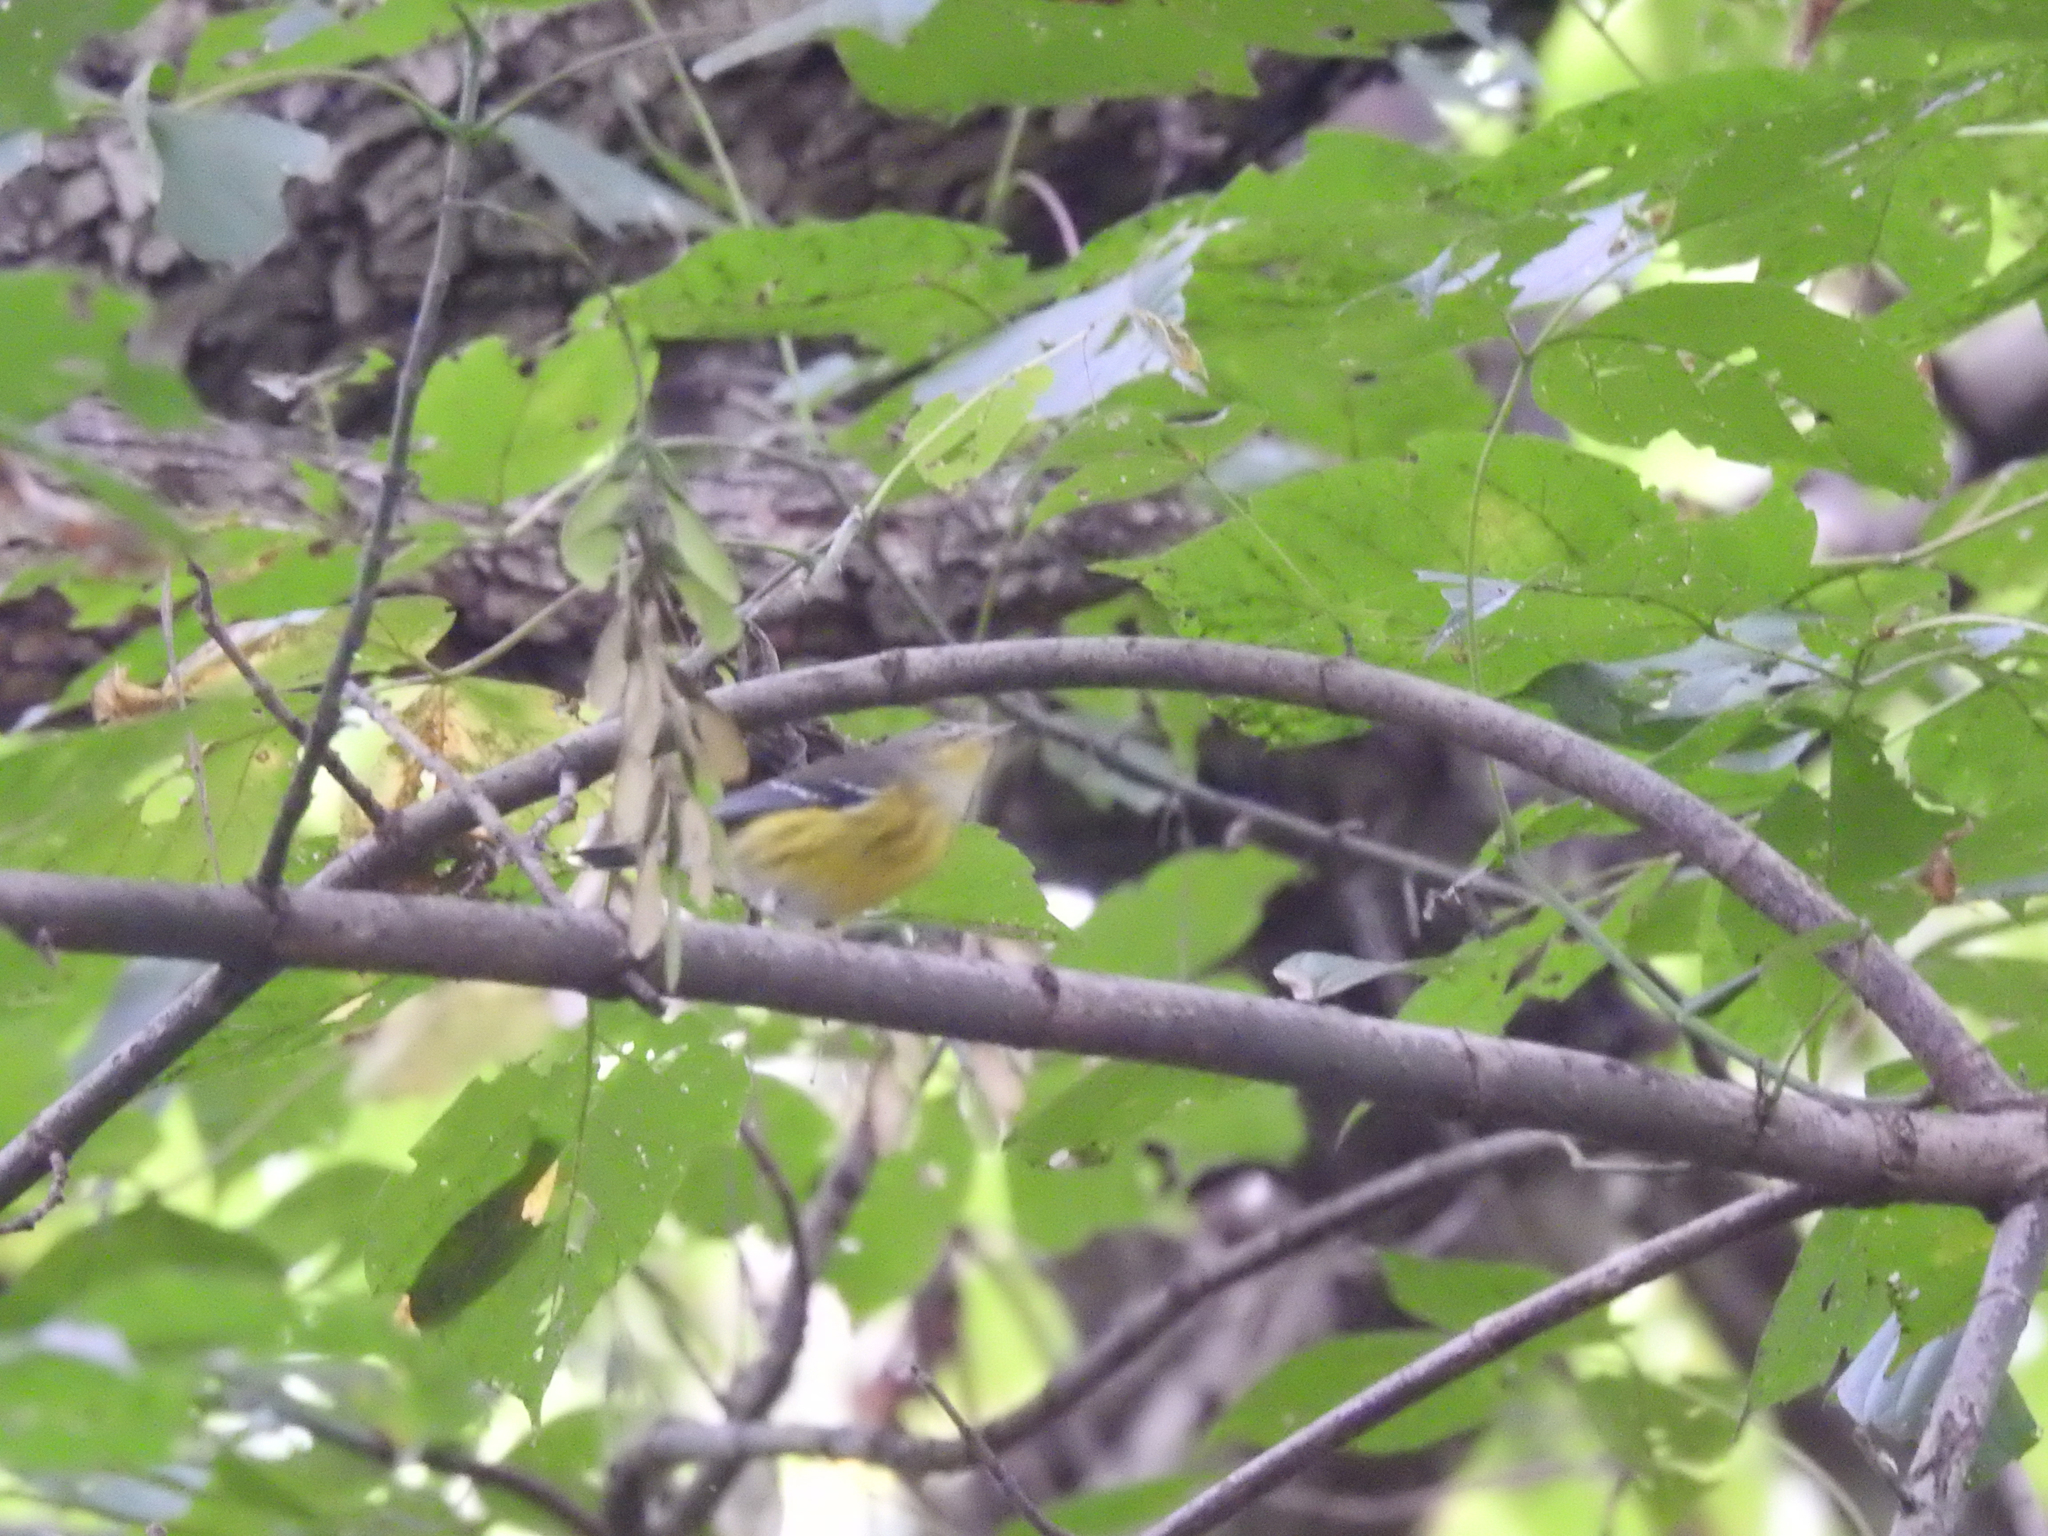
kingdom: Animalia
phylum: Chordata
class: Aves
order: Passeriformes
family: Parulidae
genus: Setophaga
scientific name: Setophaga magnolia
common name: Magnolia warbler
